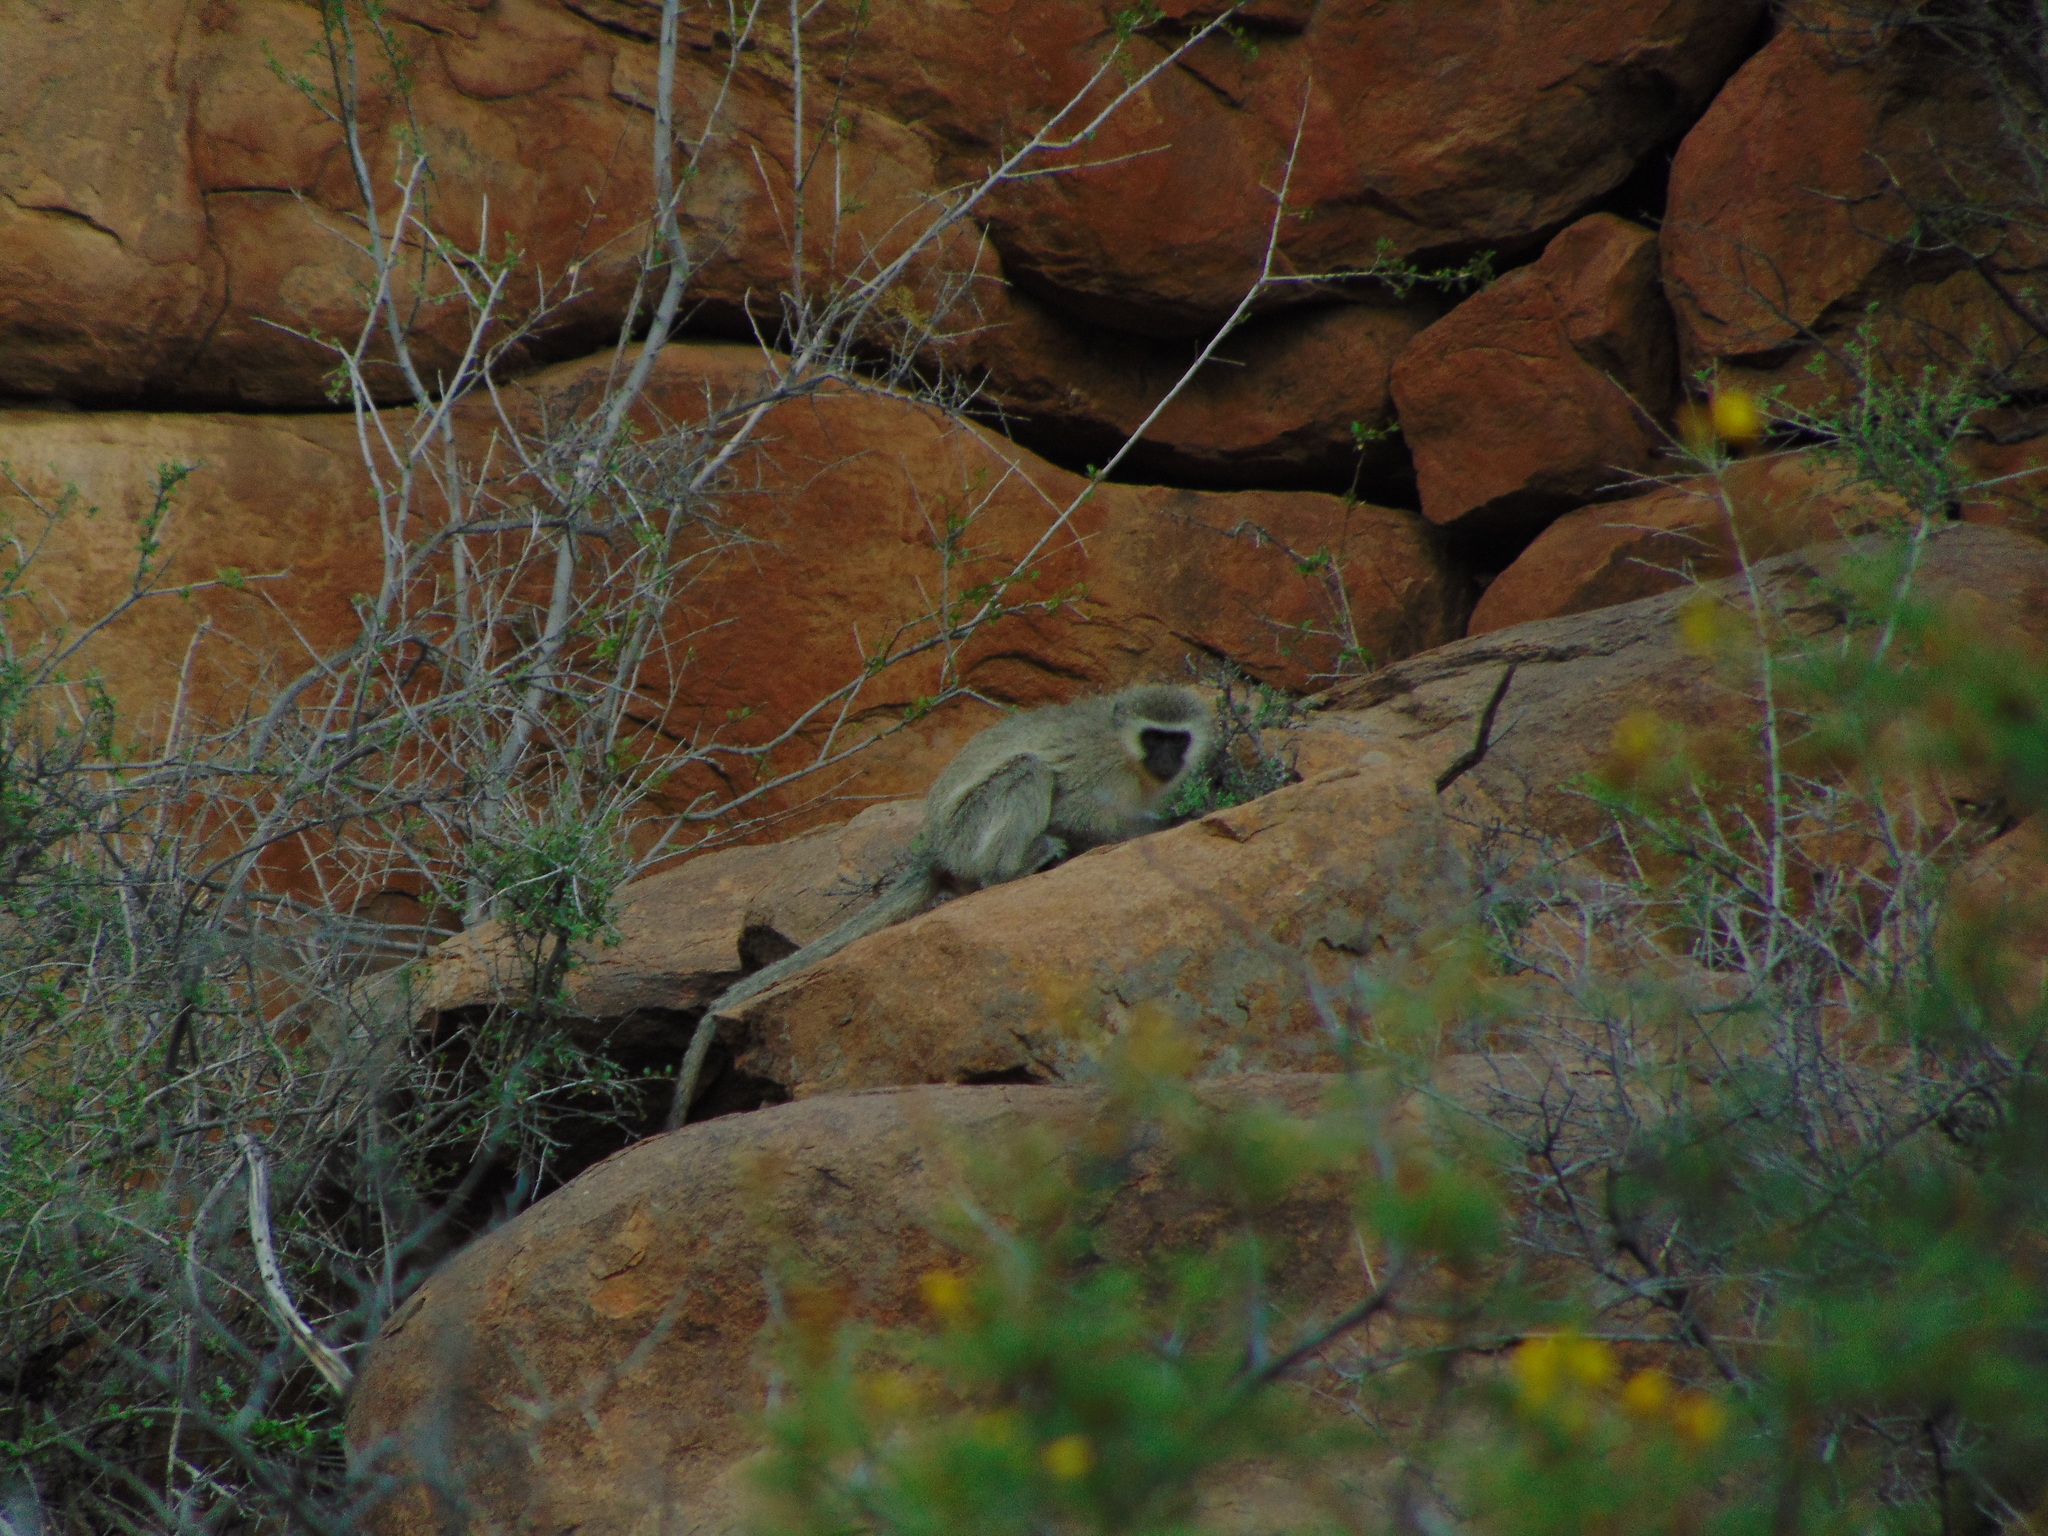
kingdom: Animalia
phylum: Chordata
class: Mammalia
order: Primates
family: Cercopithecidae
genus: Chlorocebus
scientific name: Chlorocebus pygerythrus
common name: Vervet monkey
